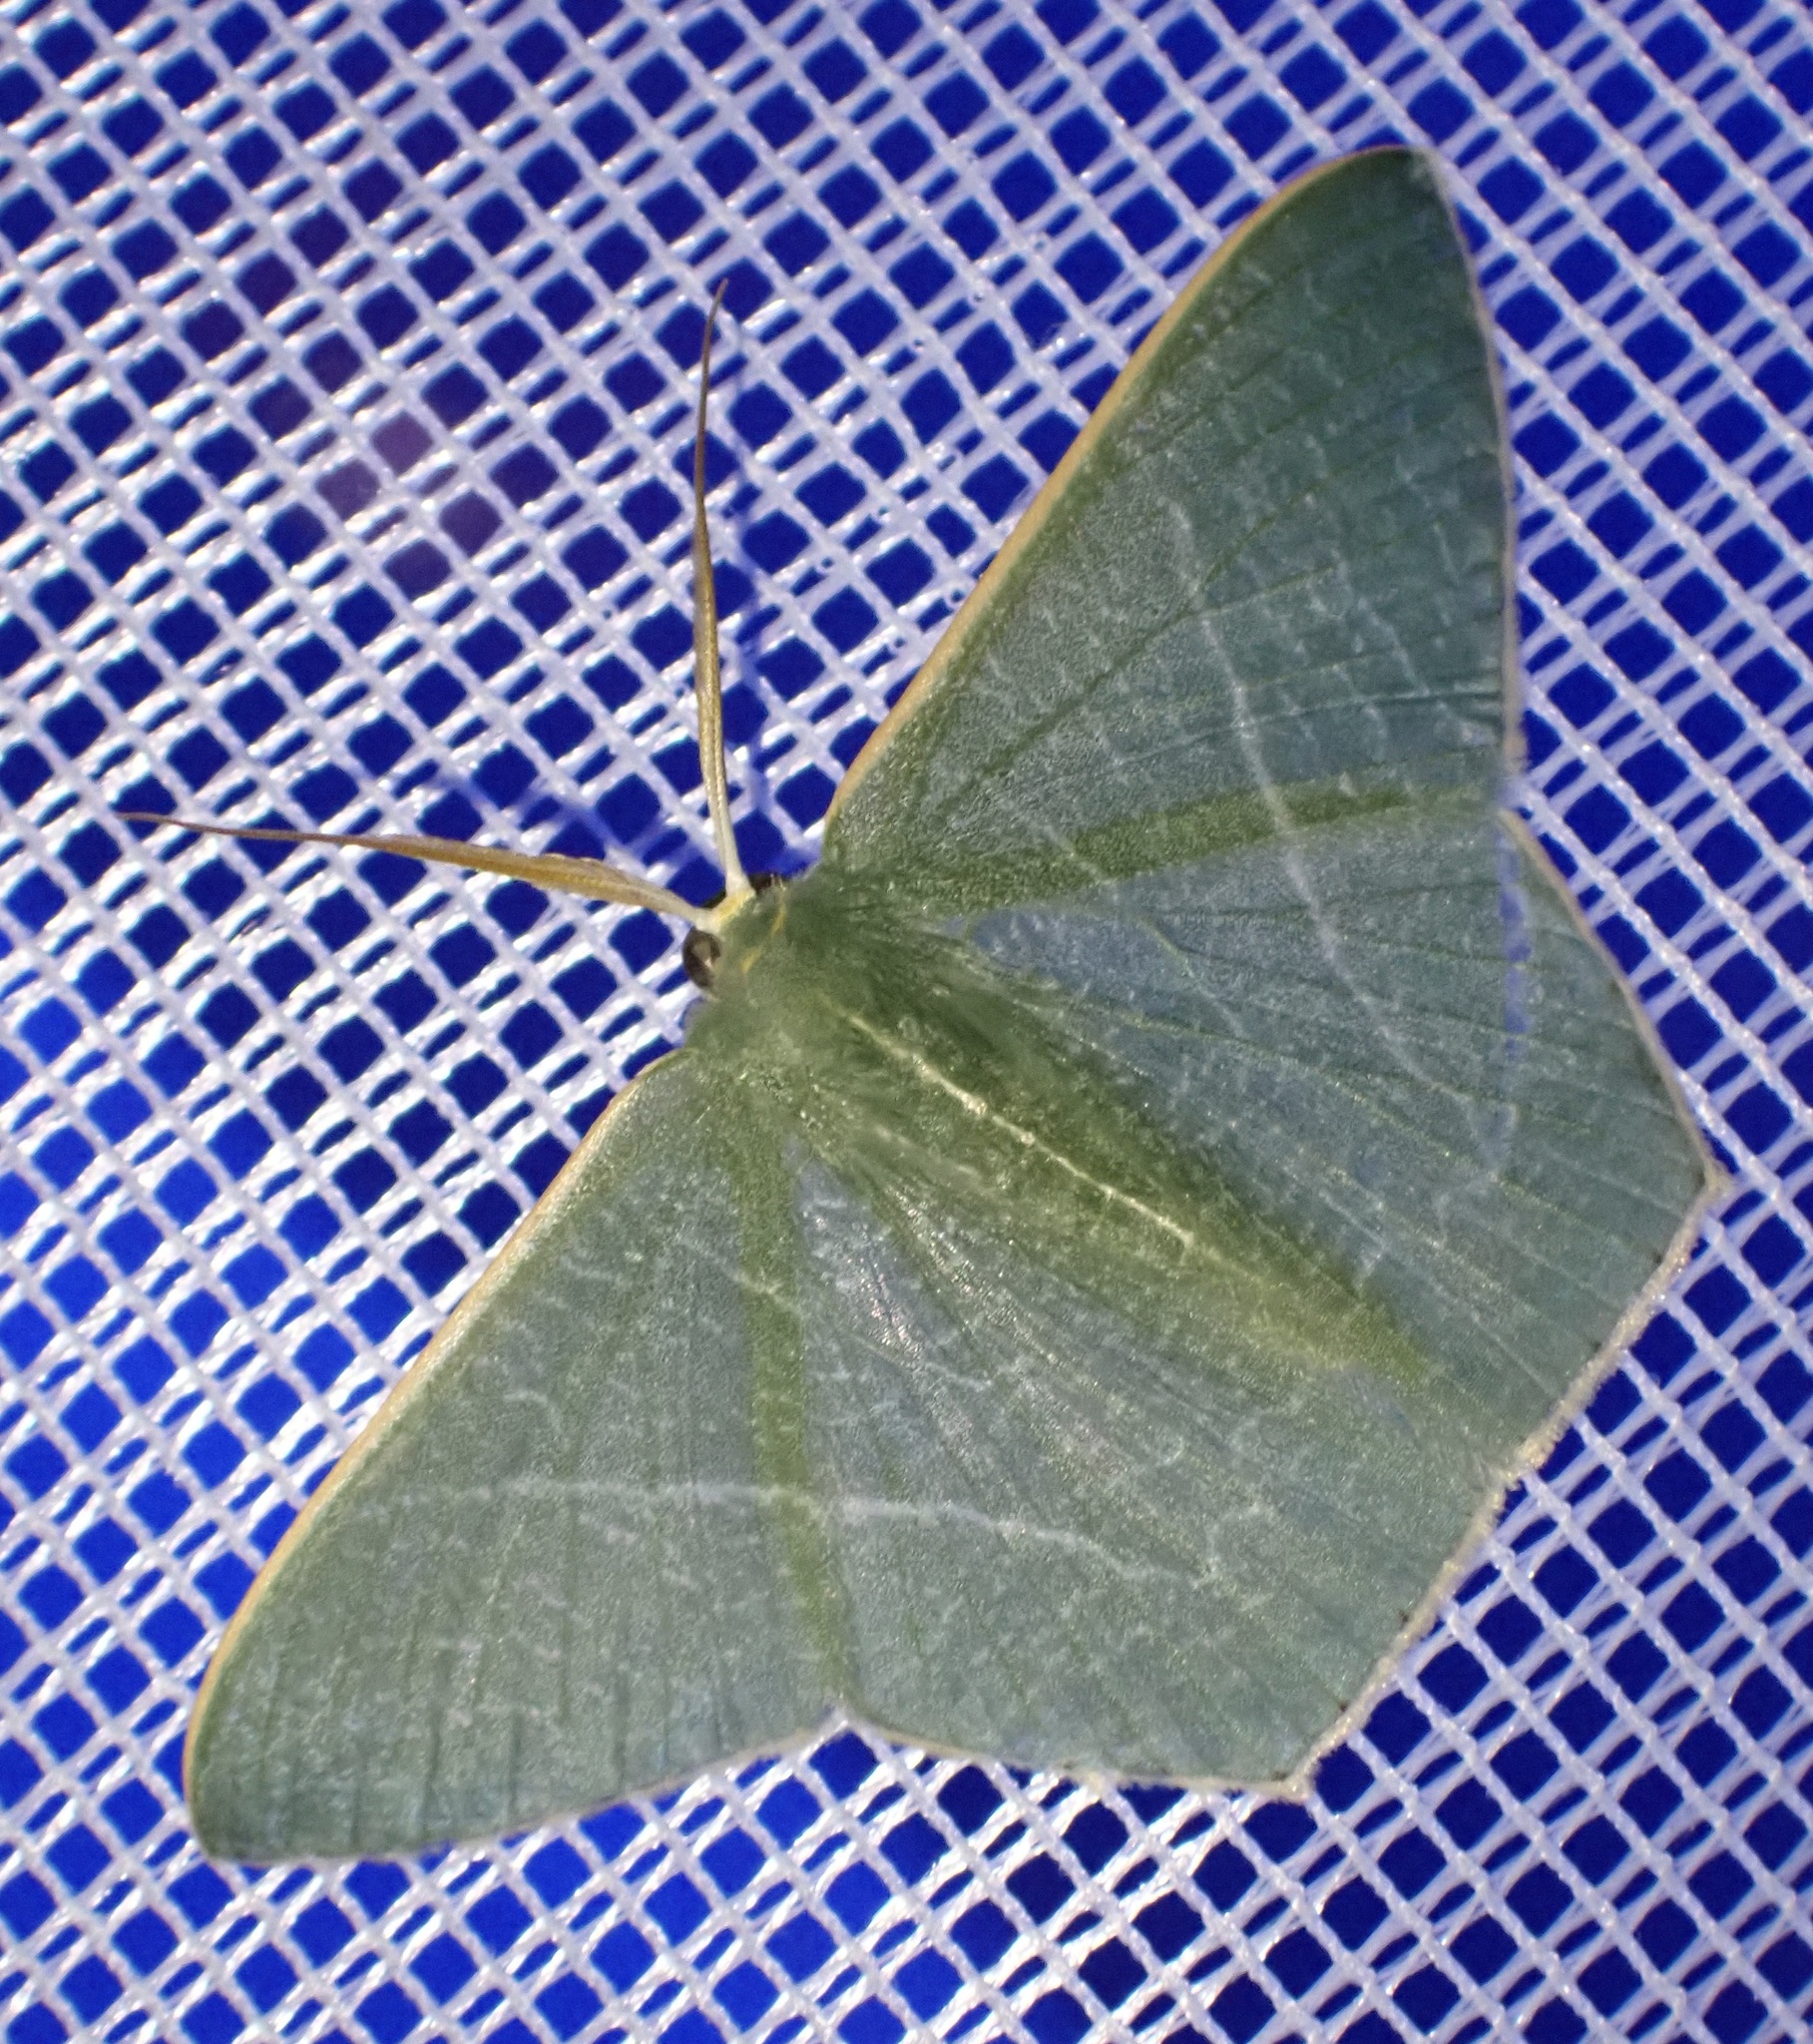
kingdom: Animalia
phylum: Arthropoda
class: Insecta
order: Lepidoptera
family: Geometridae
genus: Thalassodes
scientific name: Thalassodes dorsilinea
